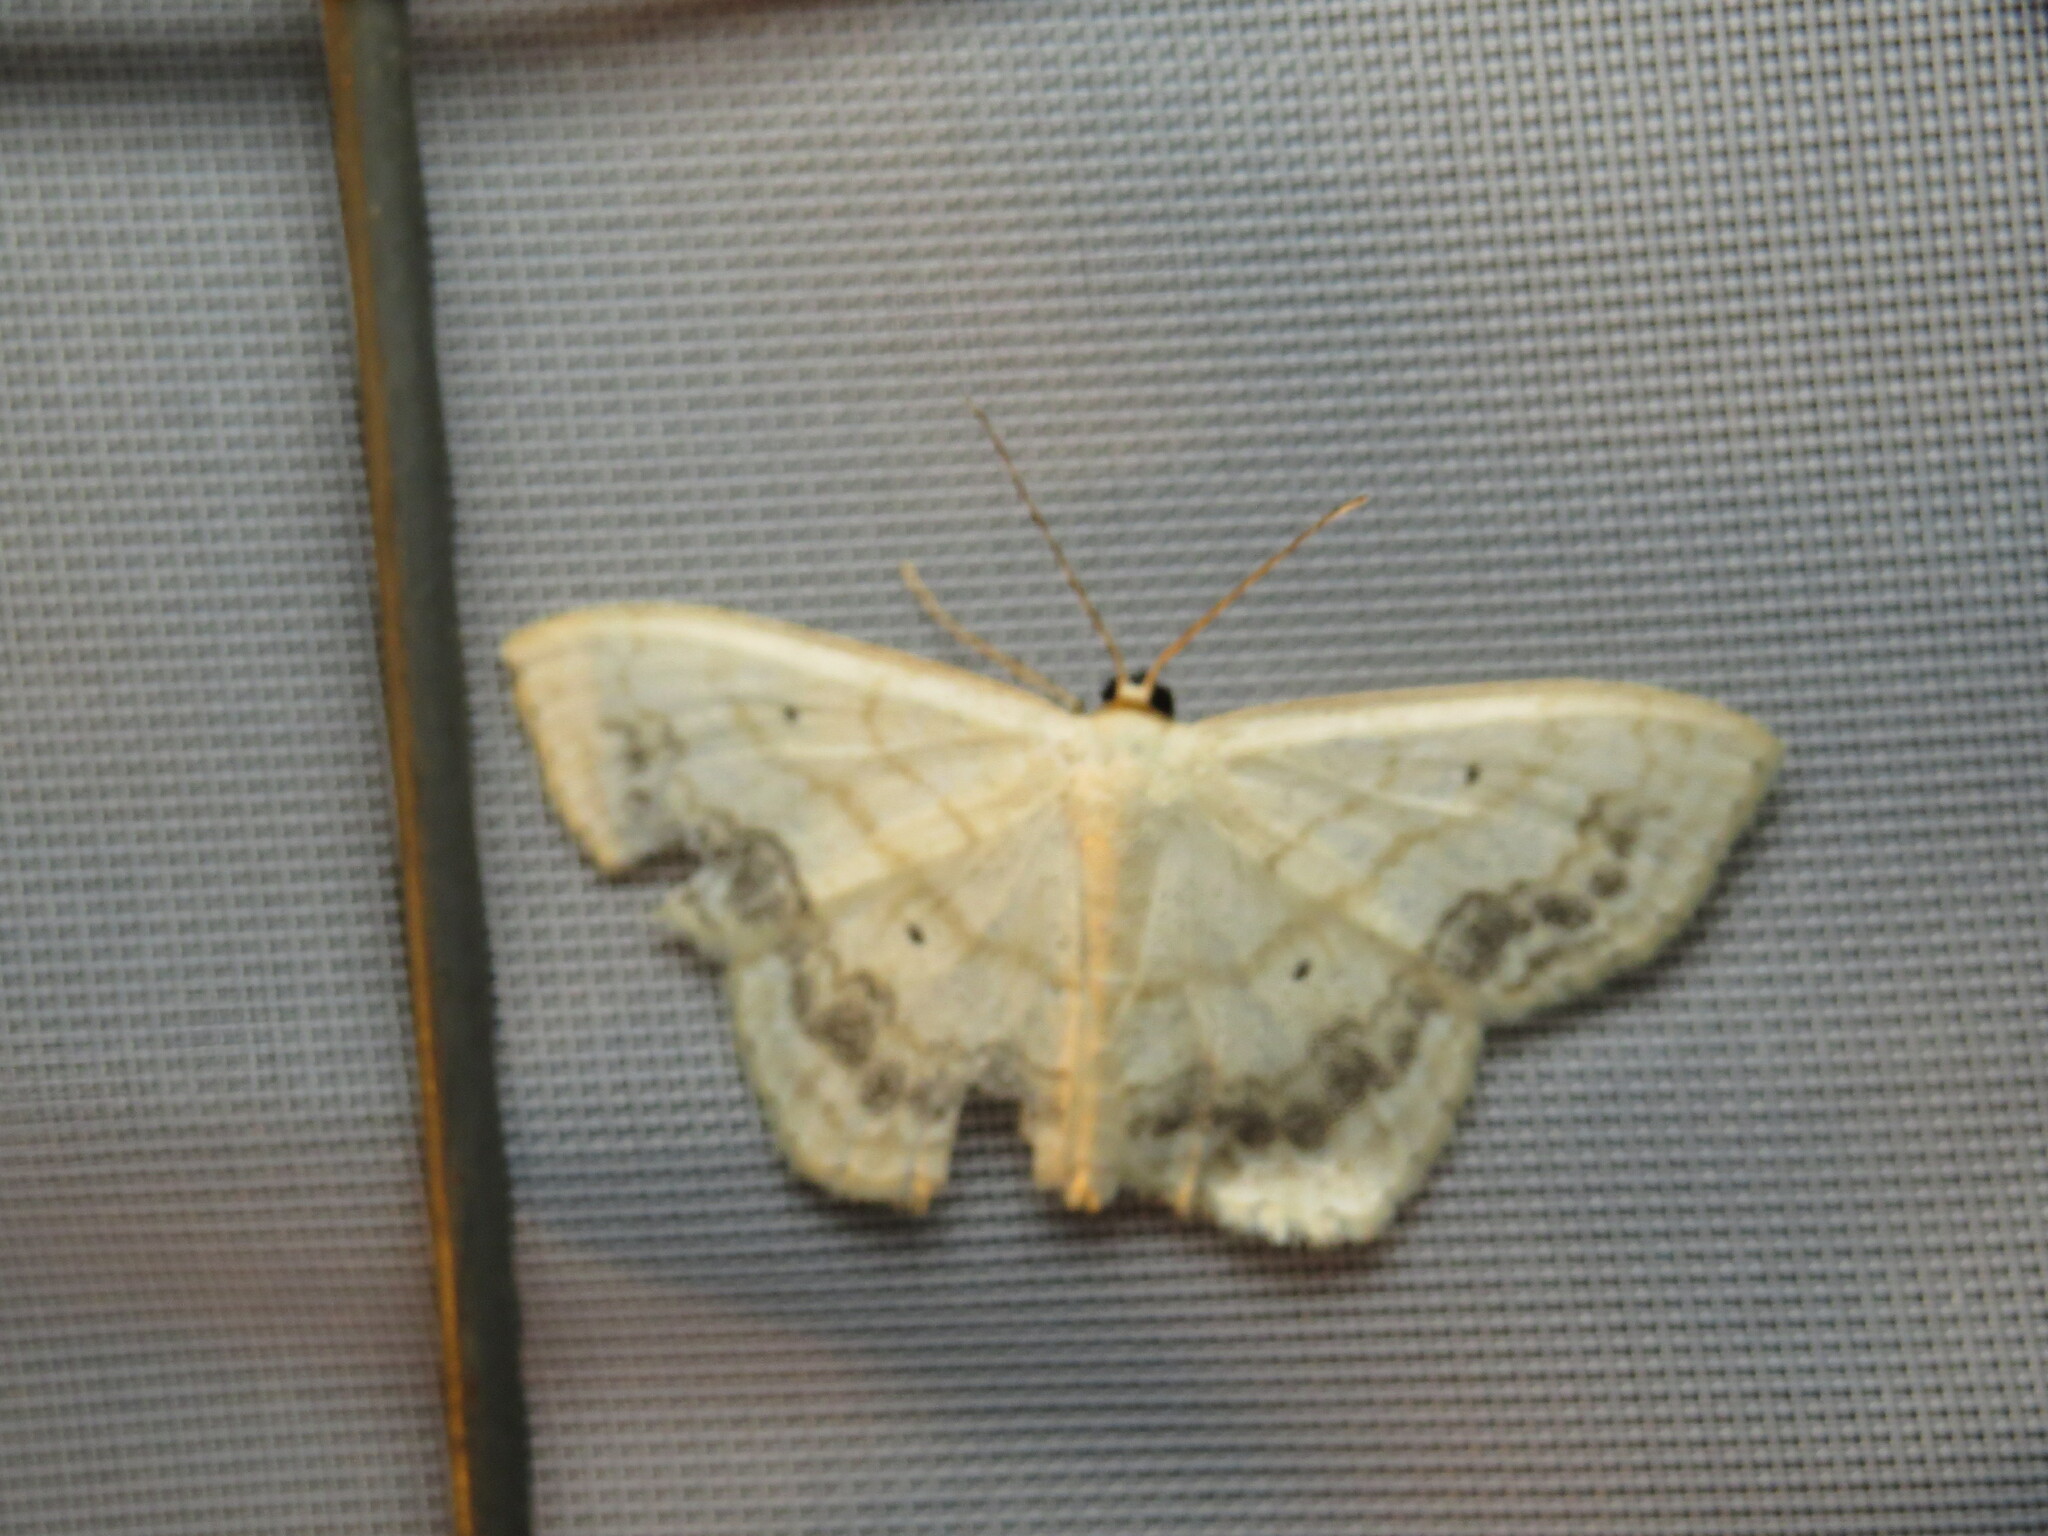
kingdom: Animalia
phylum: Arthropoda
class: Insecta
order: Lepidoptera
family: Geometridae
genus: Scopula
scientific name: Scopula limboundata
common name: Large lace border
